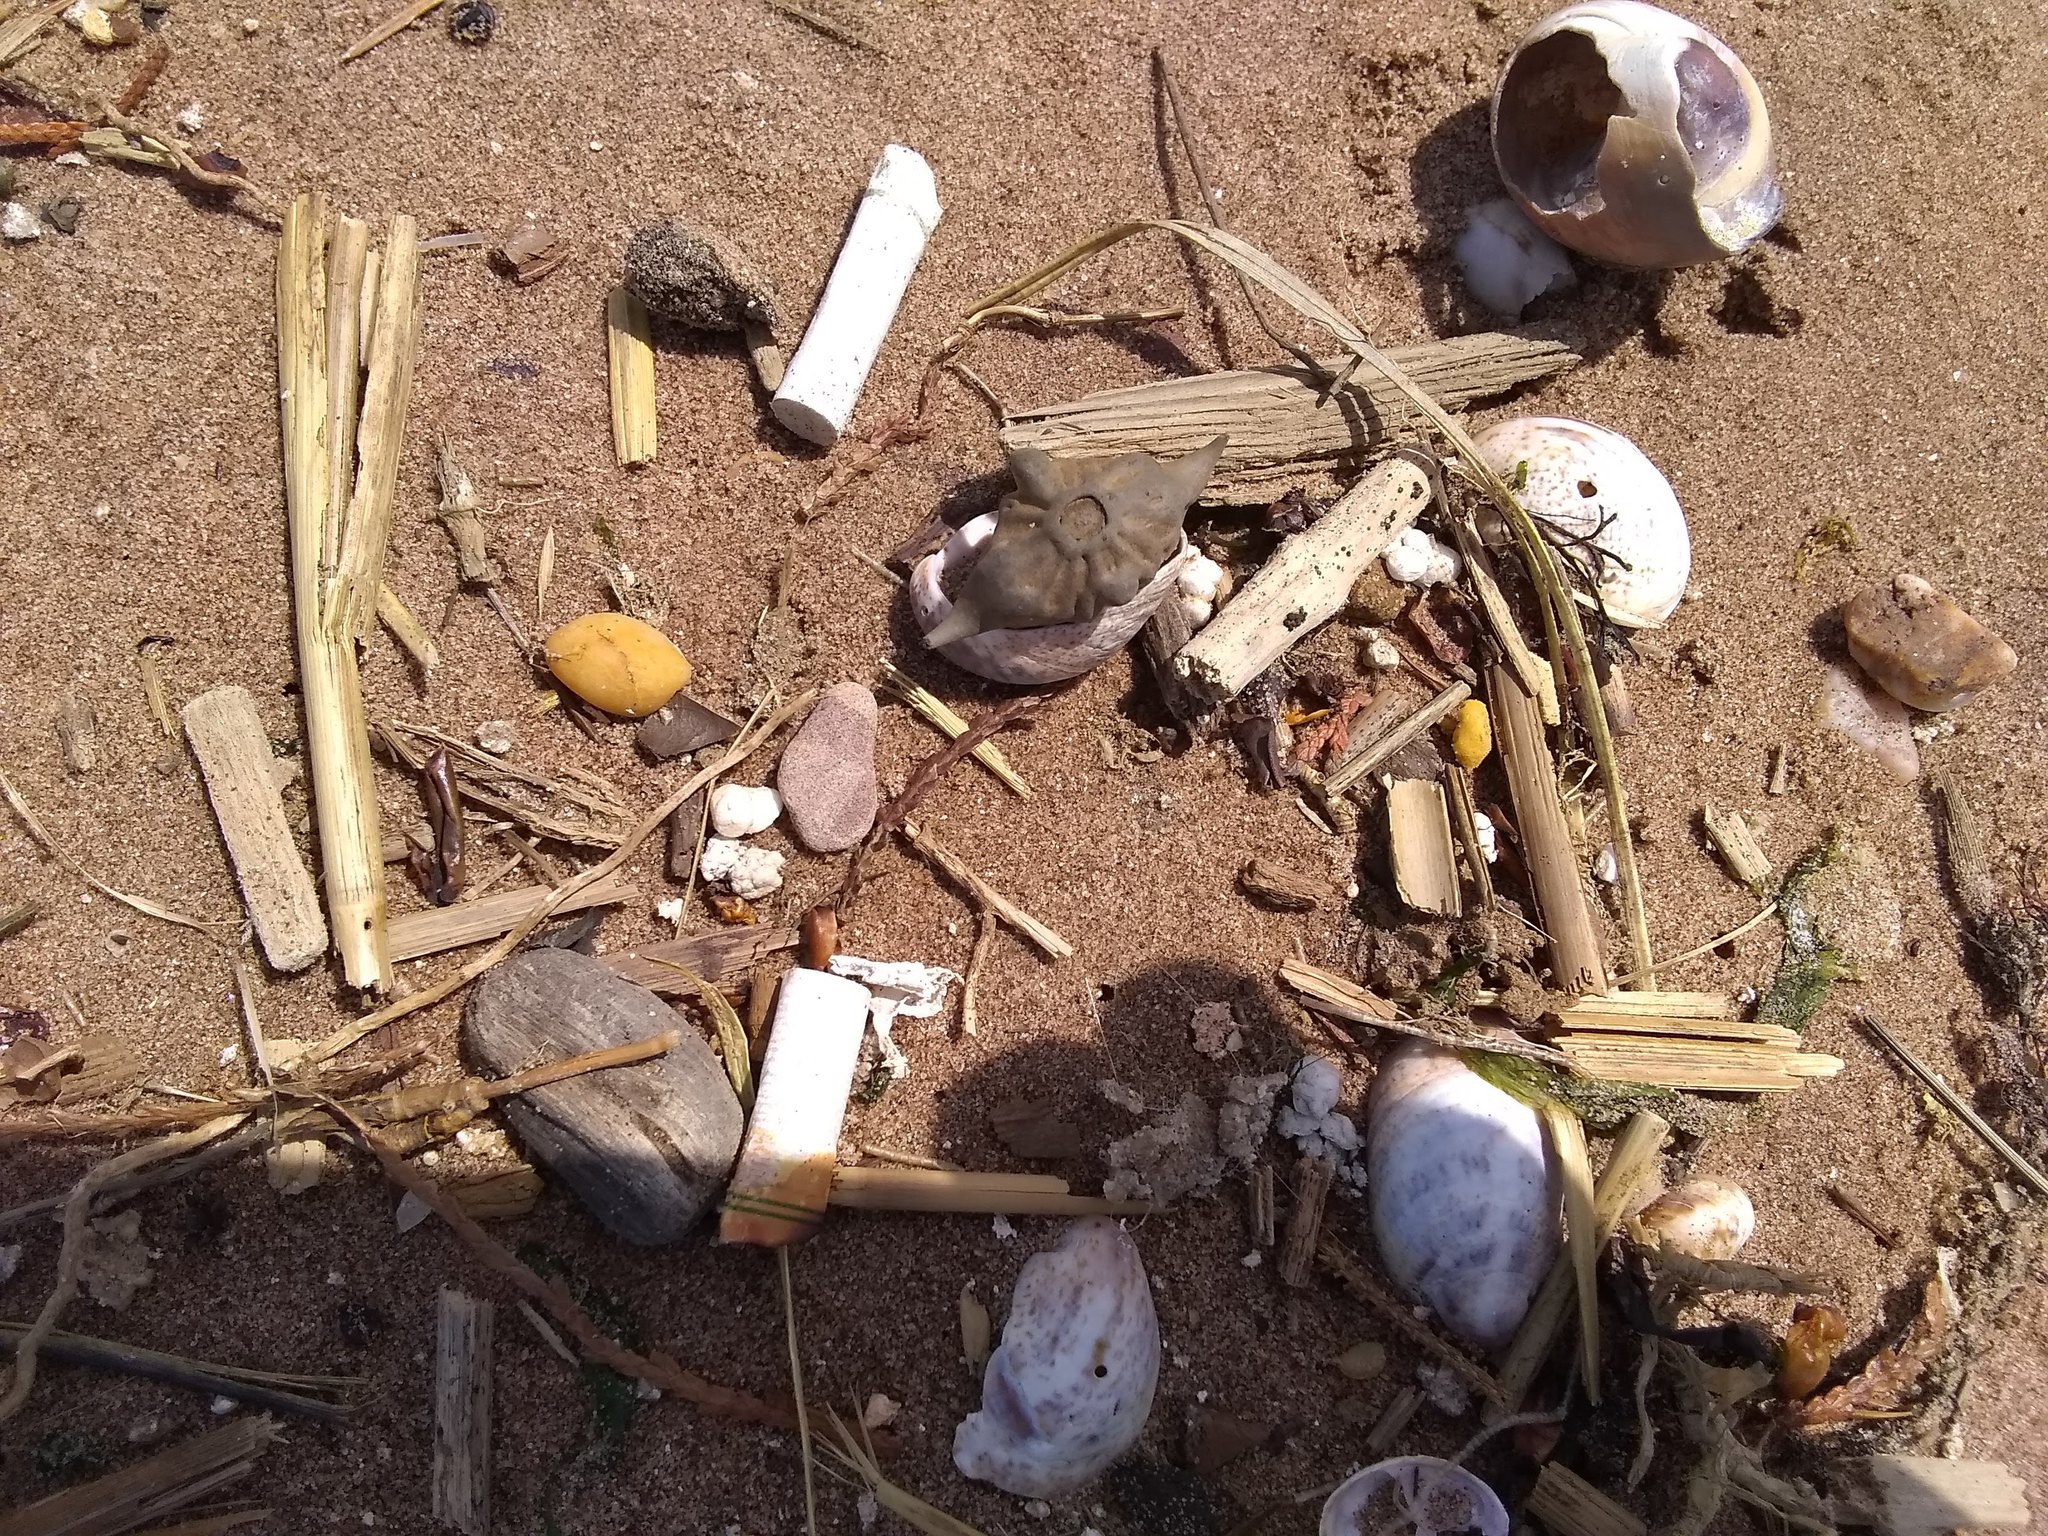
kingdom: Plantae
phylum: Tracheophyta
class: Magnoliopsida
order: Myrtales
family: Lythraceae
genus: Trapa
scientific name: Trapa natans
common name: Water chestnut
